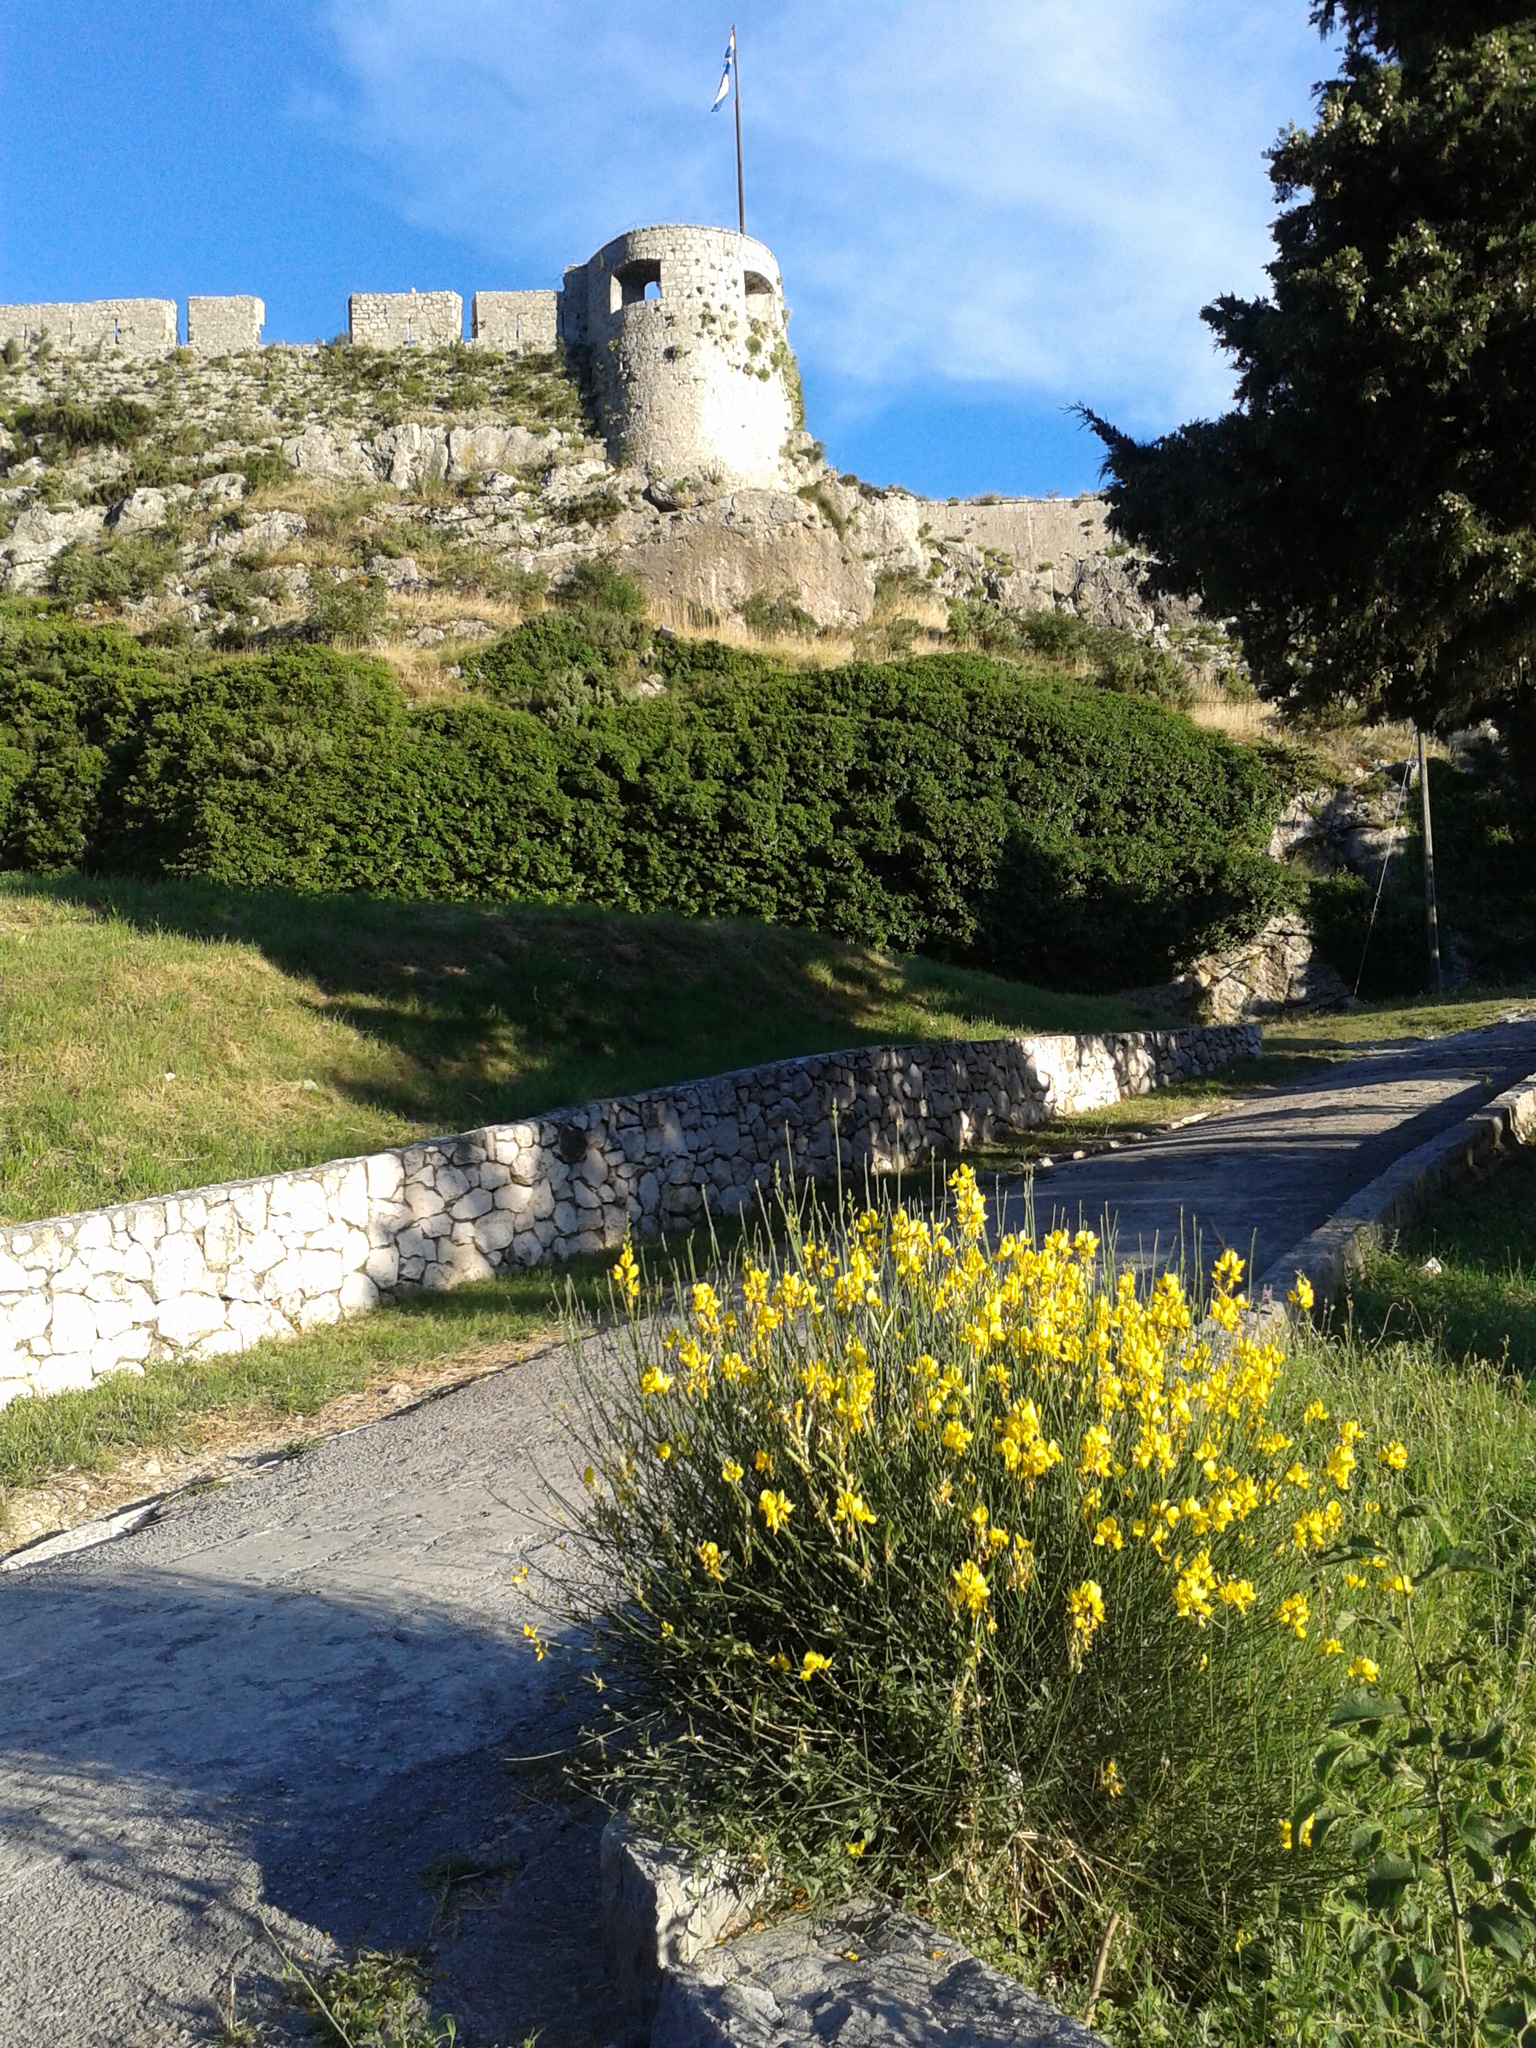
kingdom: Plantae
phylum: Tracheophyta
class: Magnoliopsida
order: Fabales
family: Fabaceae
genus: Spartium
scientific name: Spartium junceum
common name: Spanish broom
